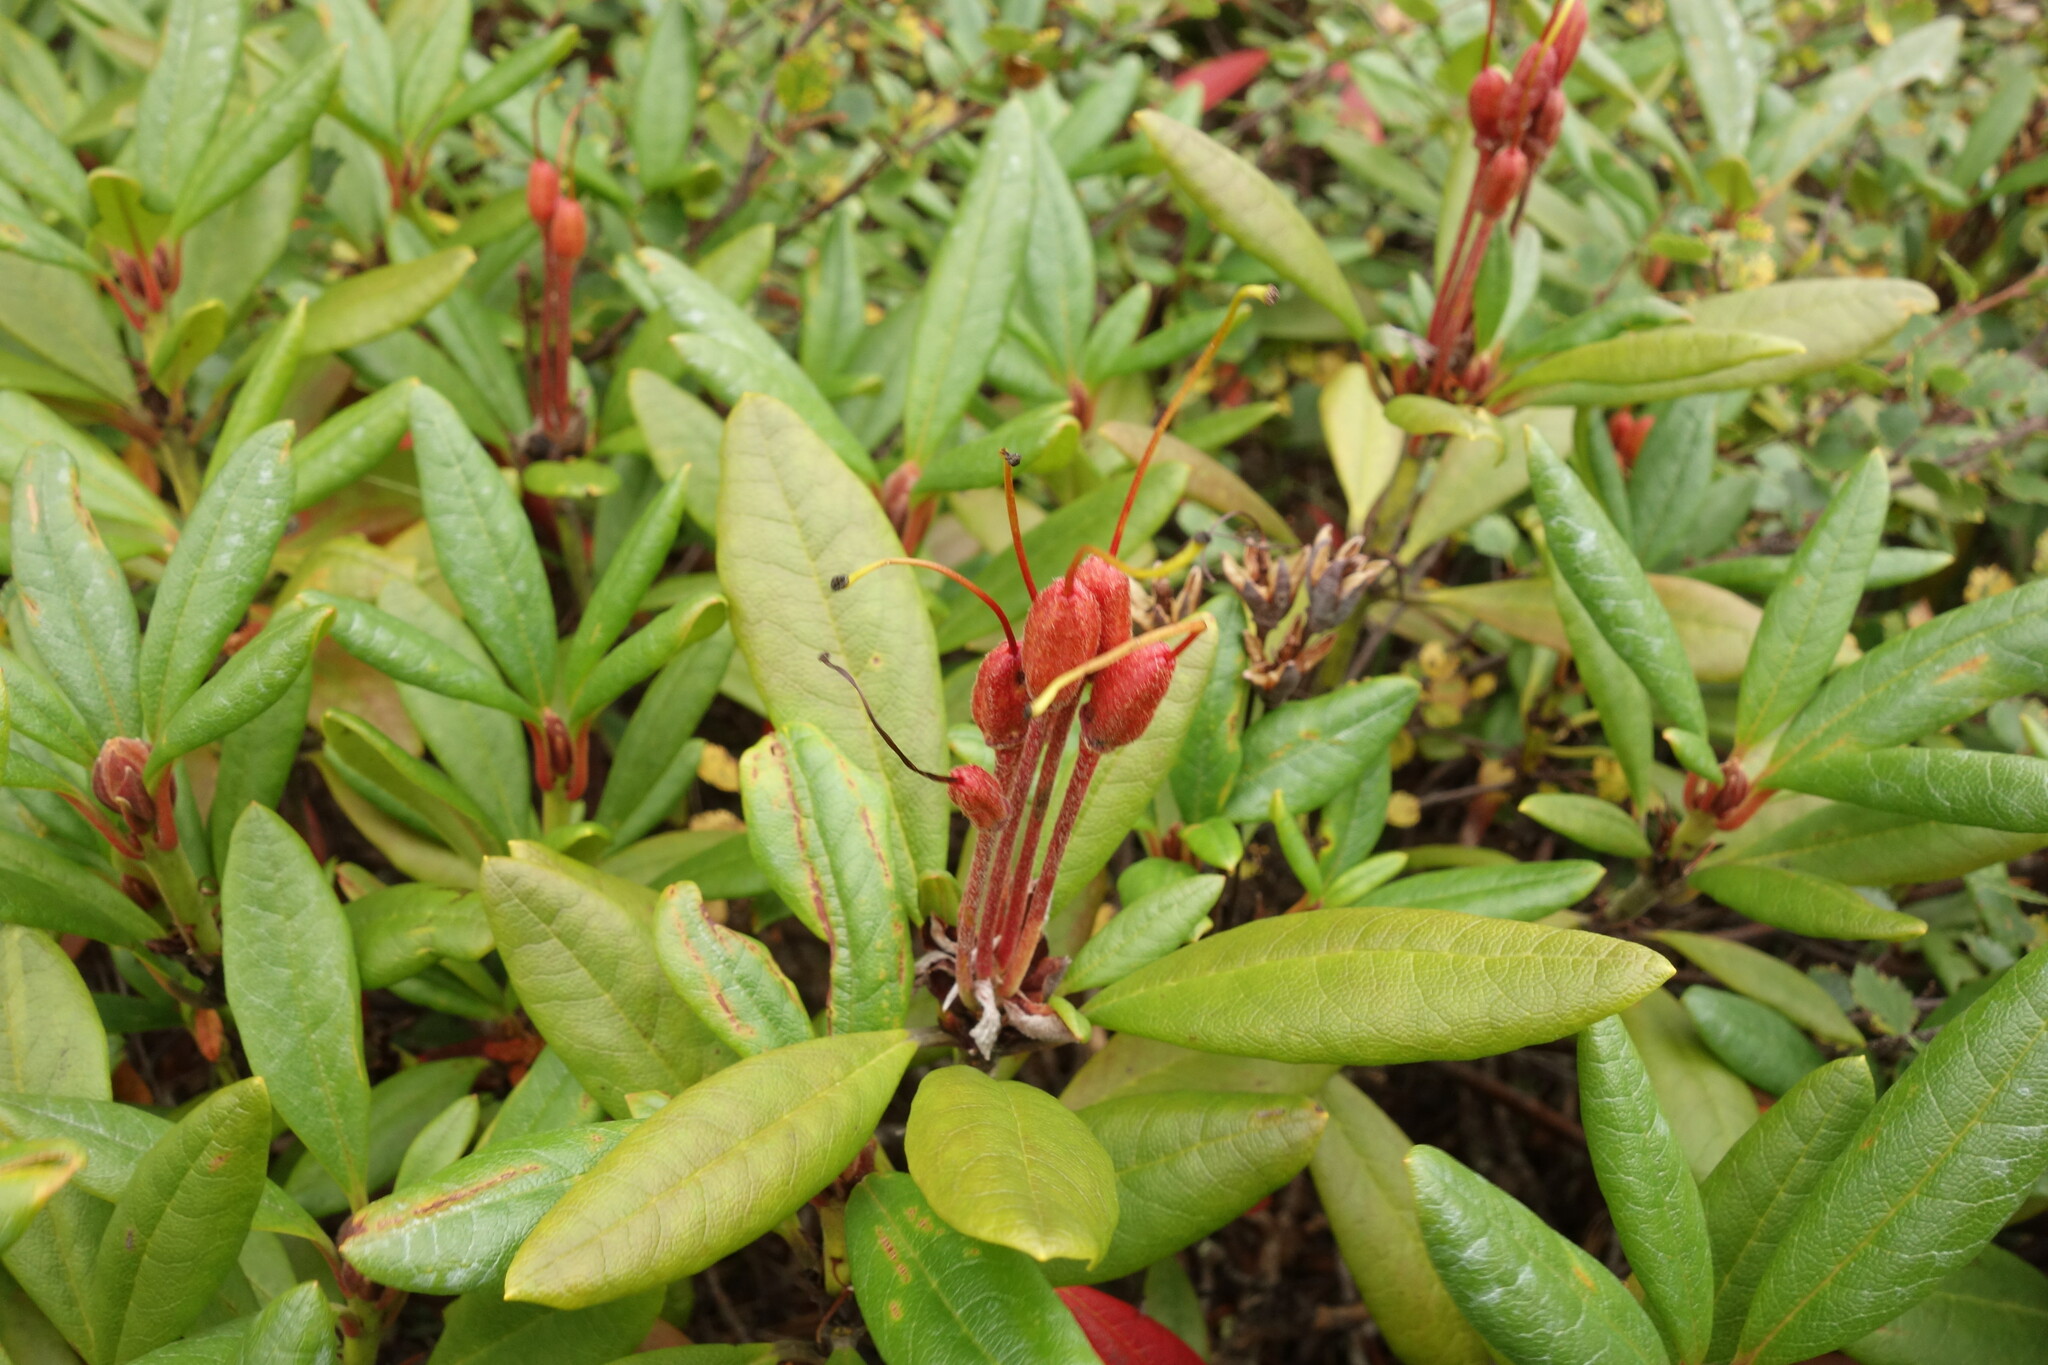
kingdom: Plantae
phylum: Tracheophyta
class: Magnoliopsida
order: Ericales
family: Ericaceae
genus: Rhododendron
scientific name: Rhododendron aureum
